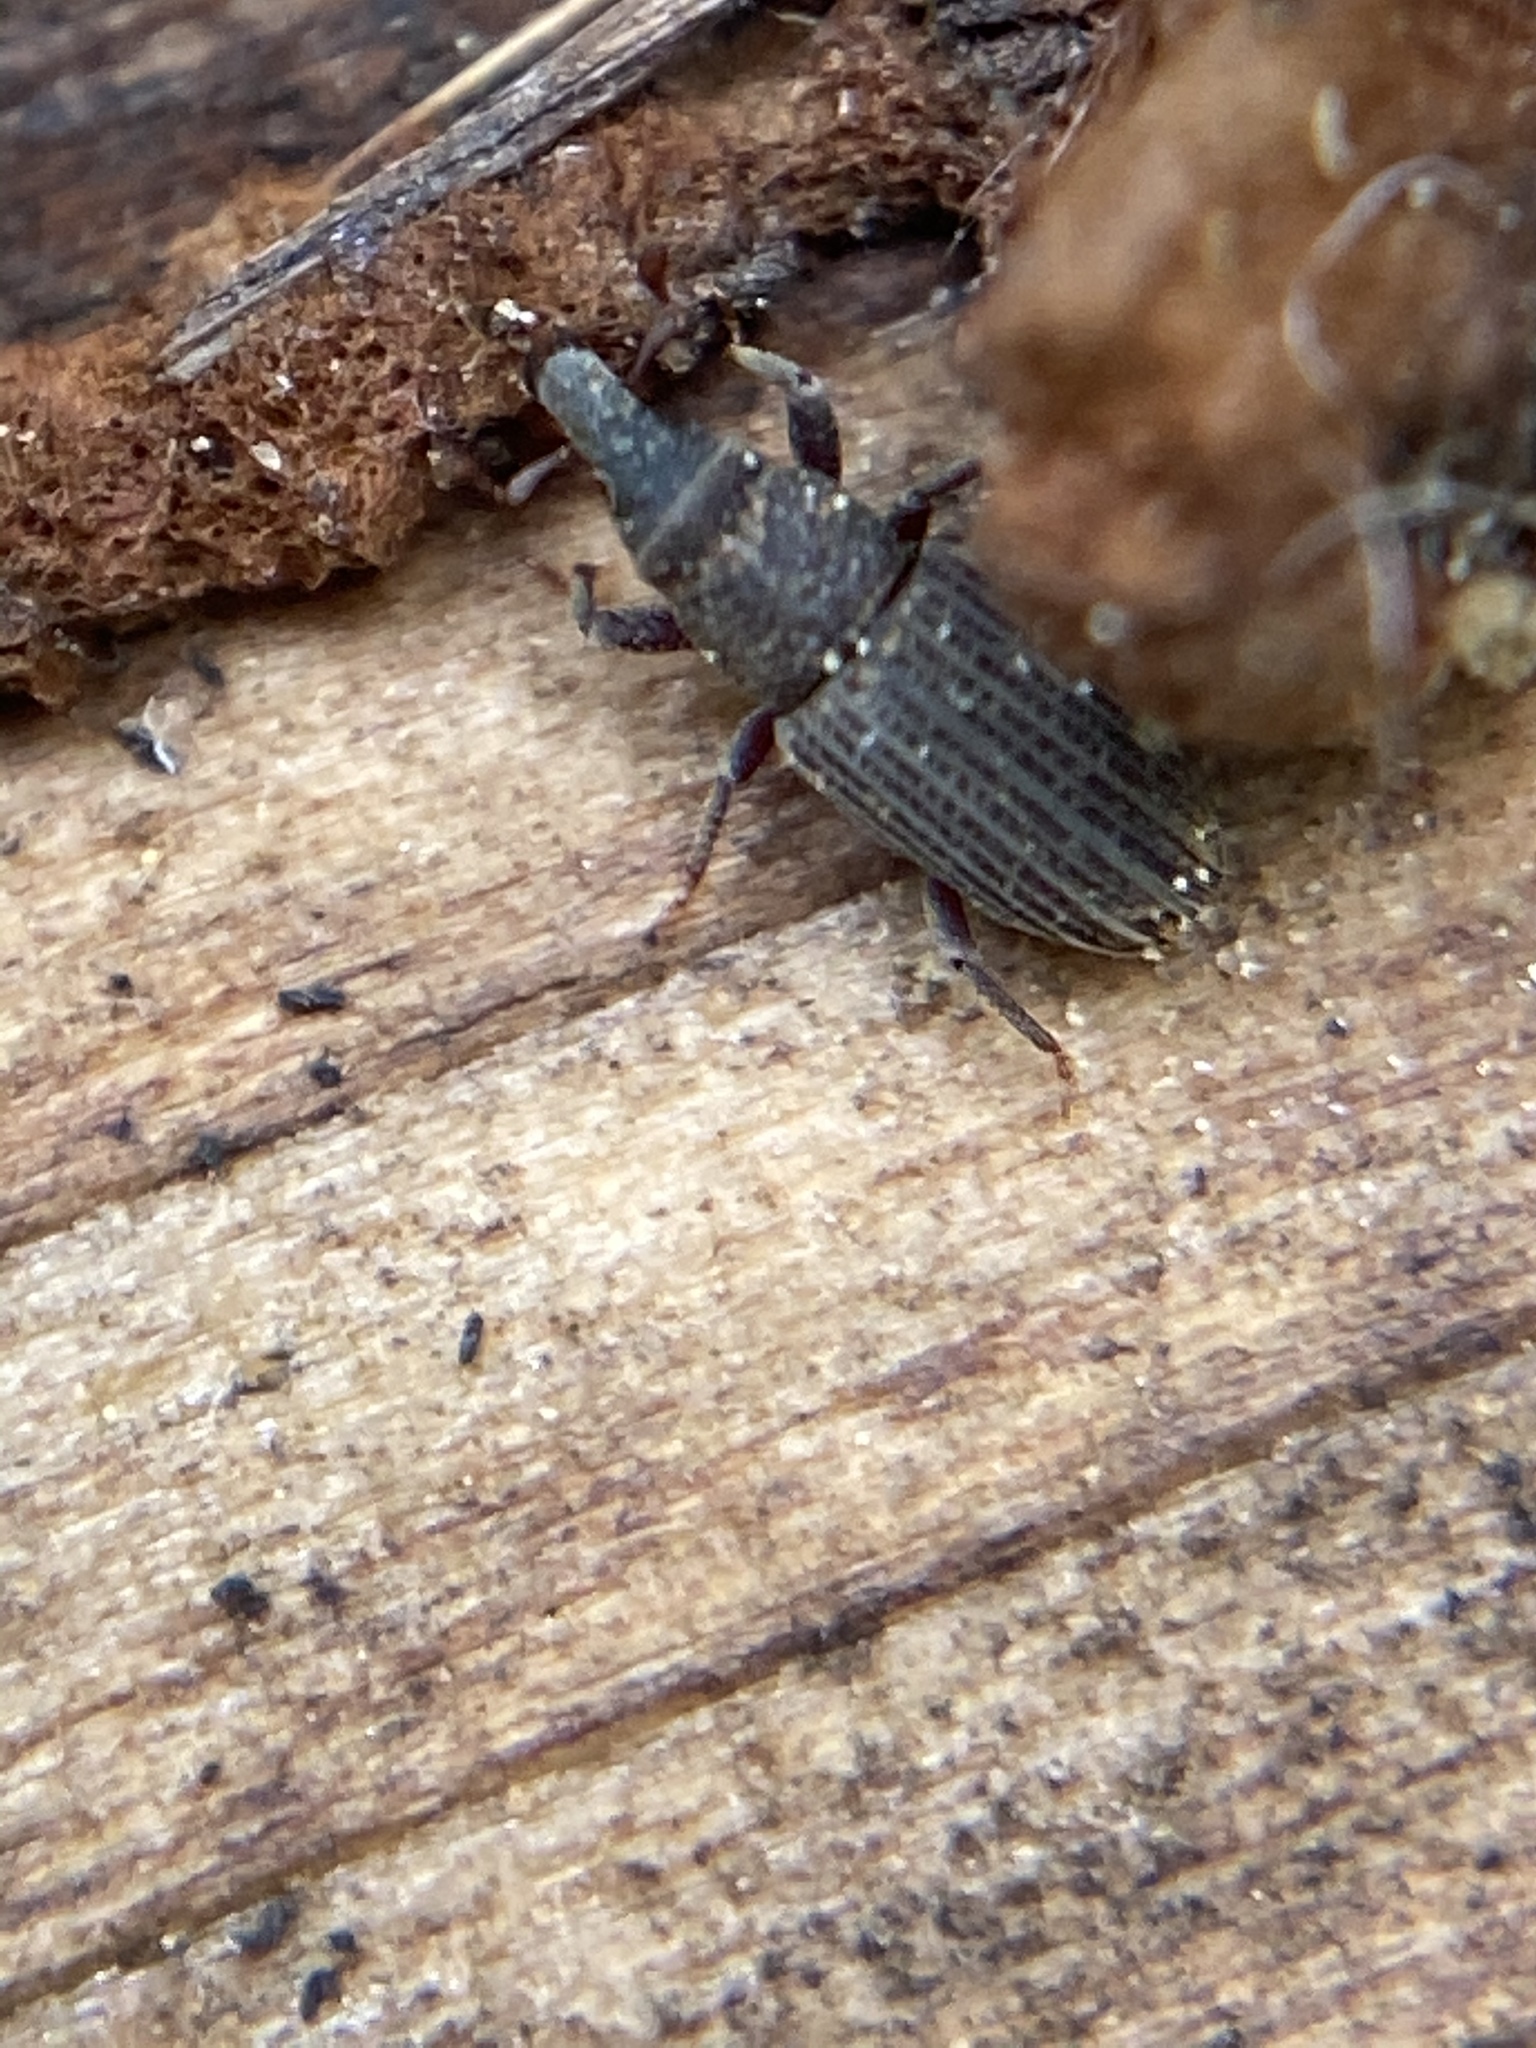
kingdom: Animalia
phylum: Arthropoda
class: Insecta
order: Coleoptera
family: Dryophthoridae
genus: Dryophthorus
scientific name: Dryophthorus americanus
